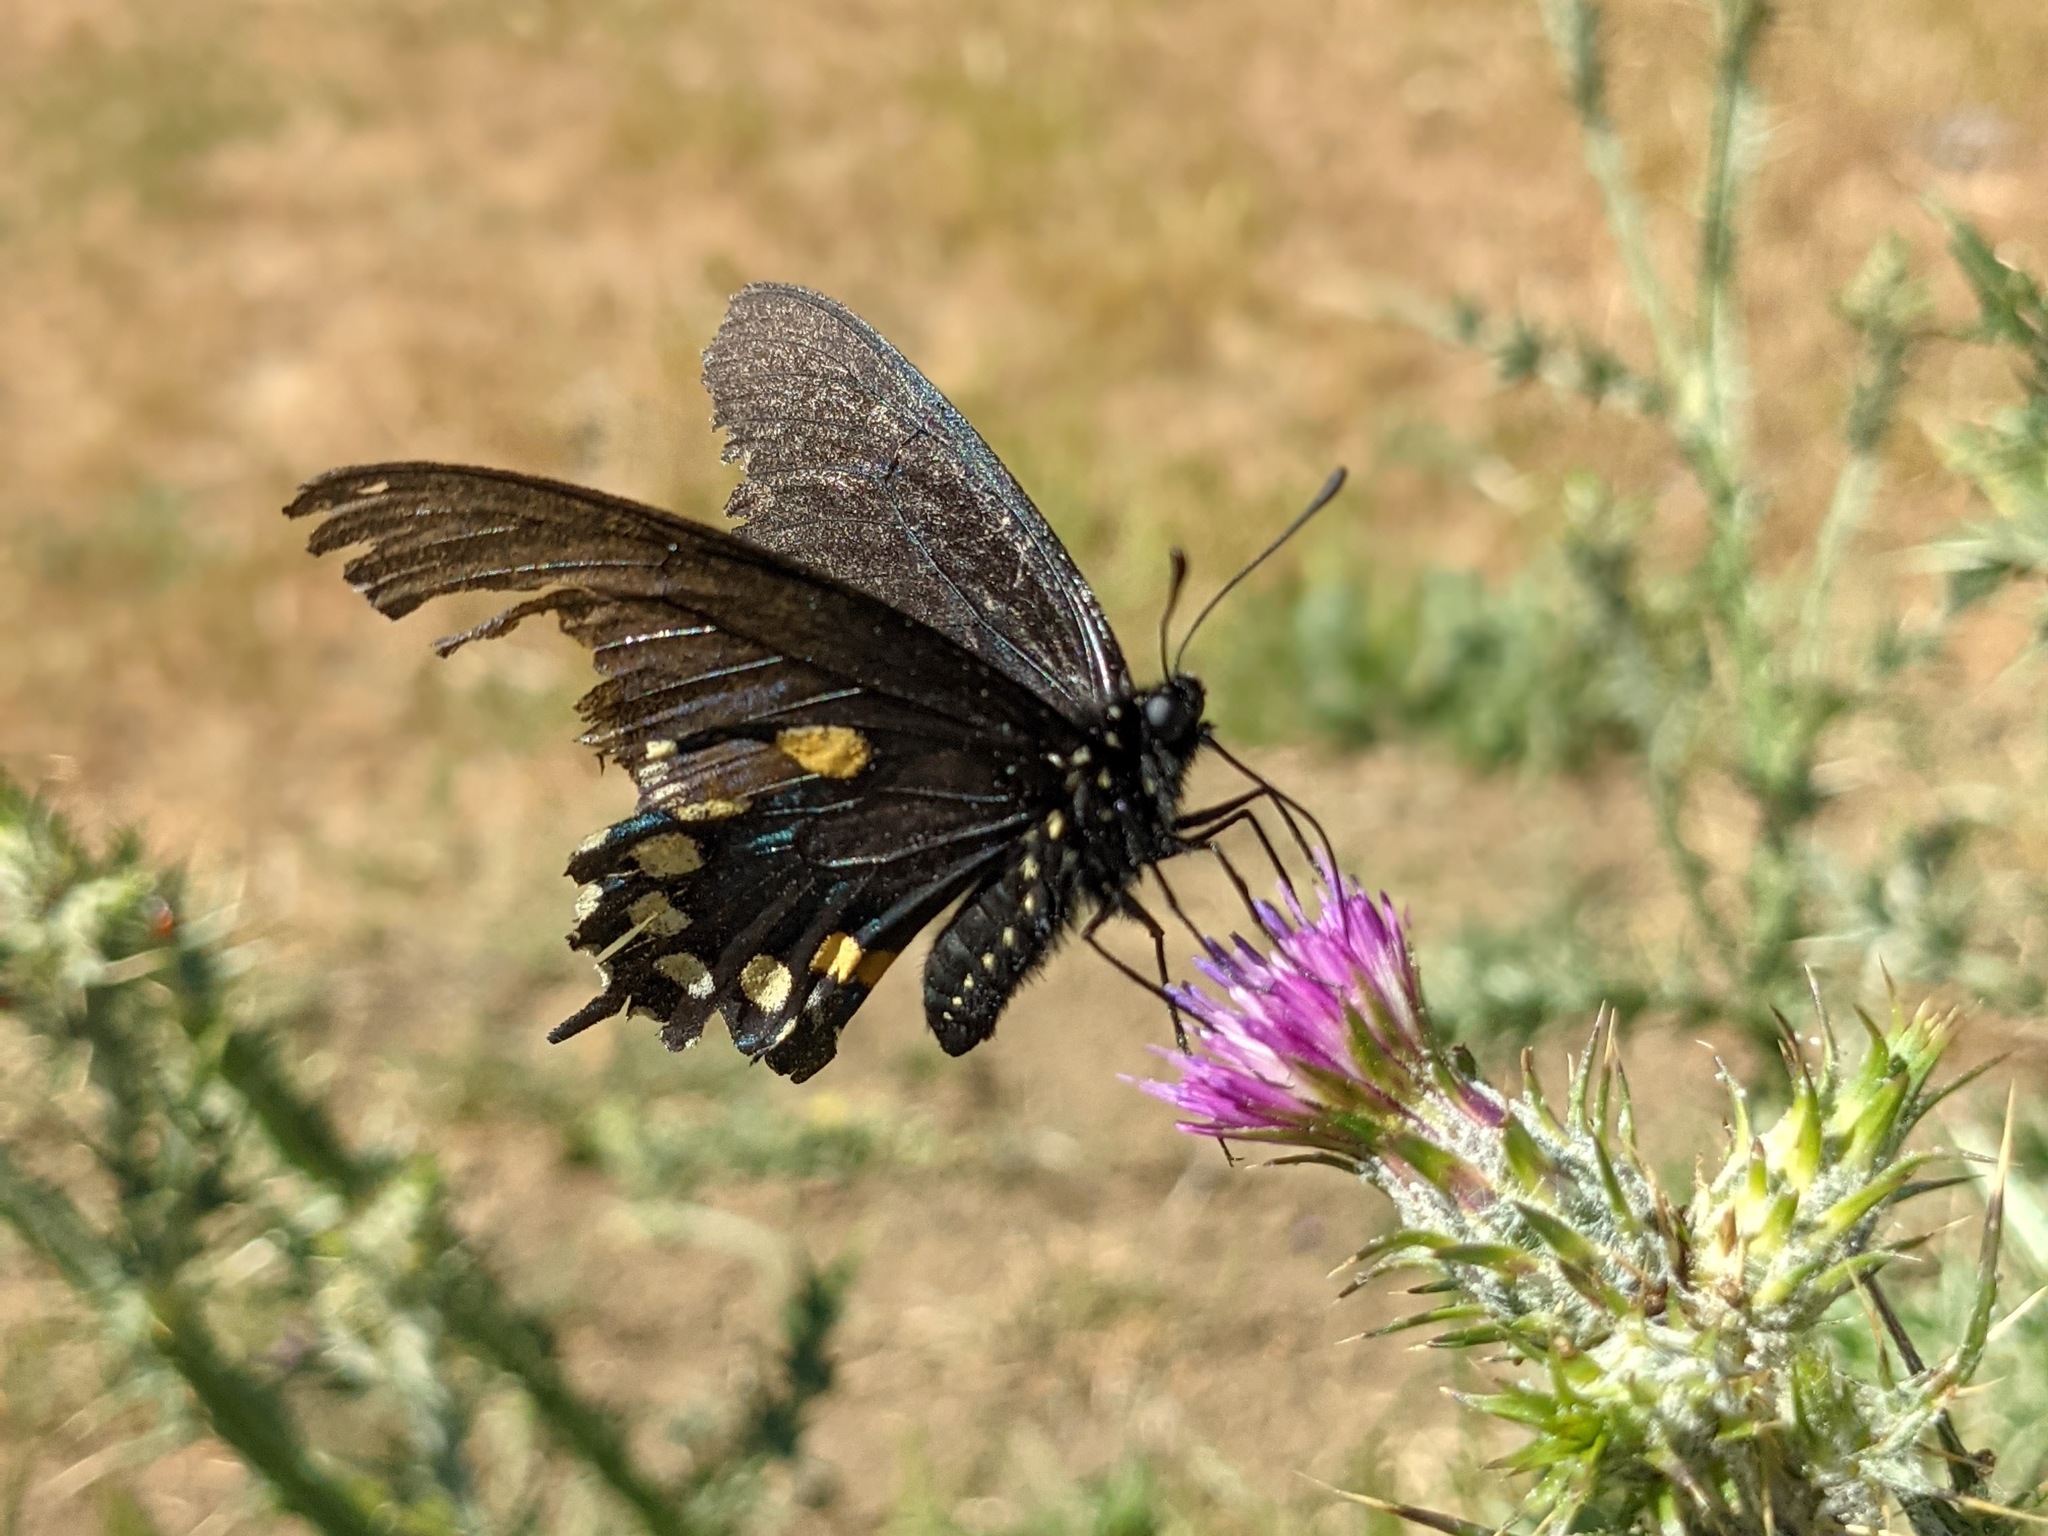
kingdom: Animalia
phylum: Arthropoda
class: Insecta
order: Lepidoptera
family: Papilionidae
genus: Battus
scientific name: Battus philenor
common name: Pipevine swallowtail
